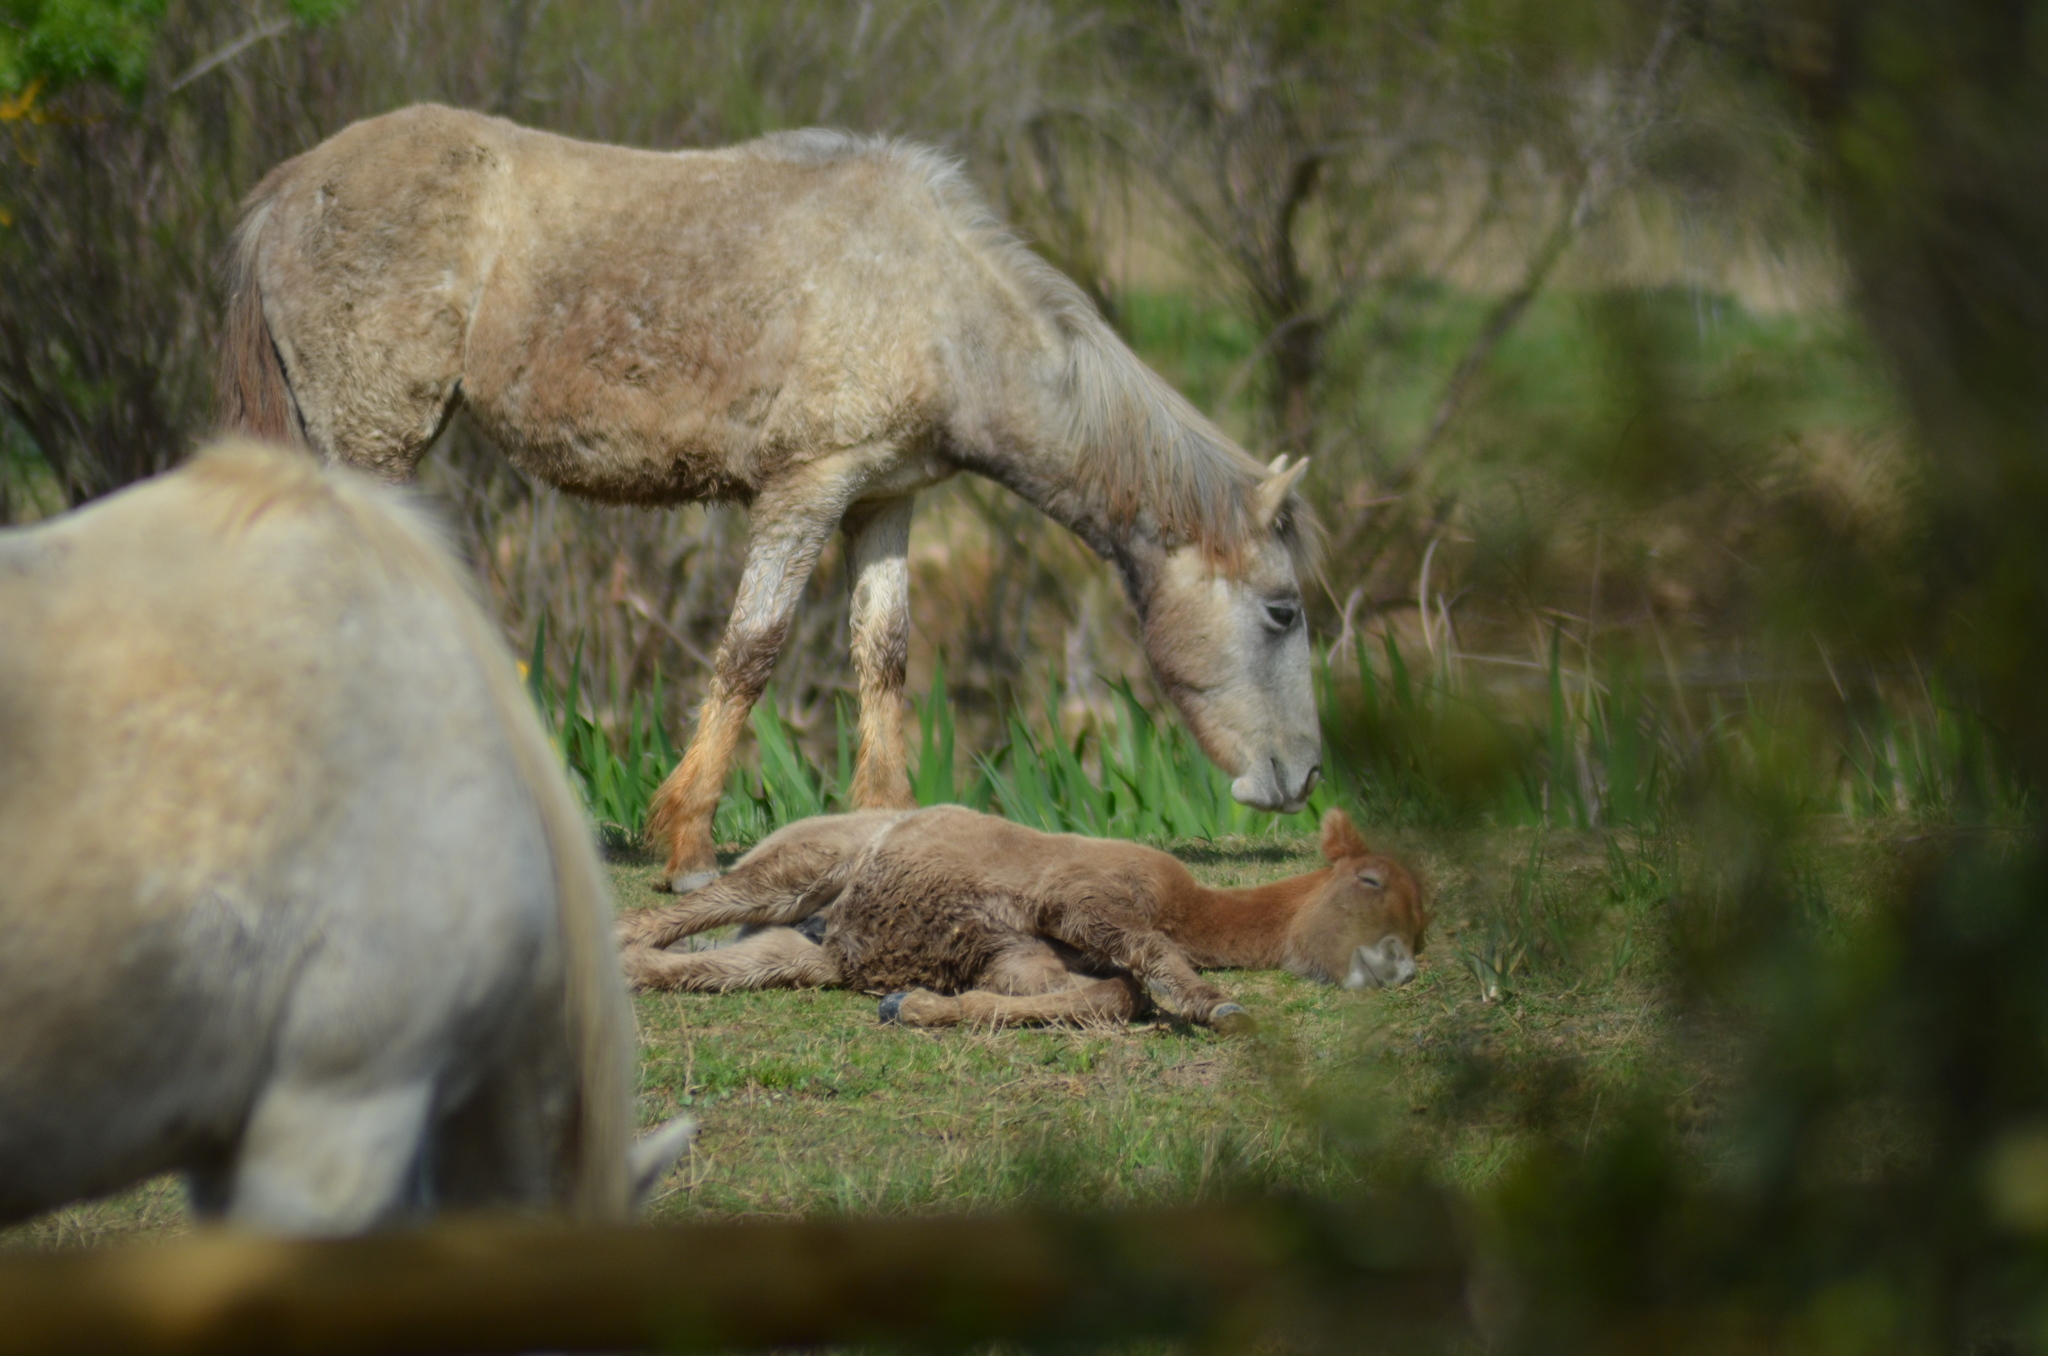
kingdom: Animalia
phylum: Chordata
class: Mammalia
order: Perissodactyla
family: Equidae
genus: Equus
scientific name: Equus caballus
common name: Horse
